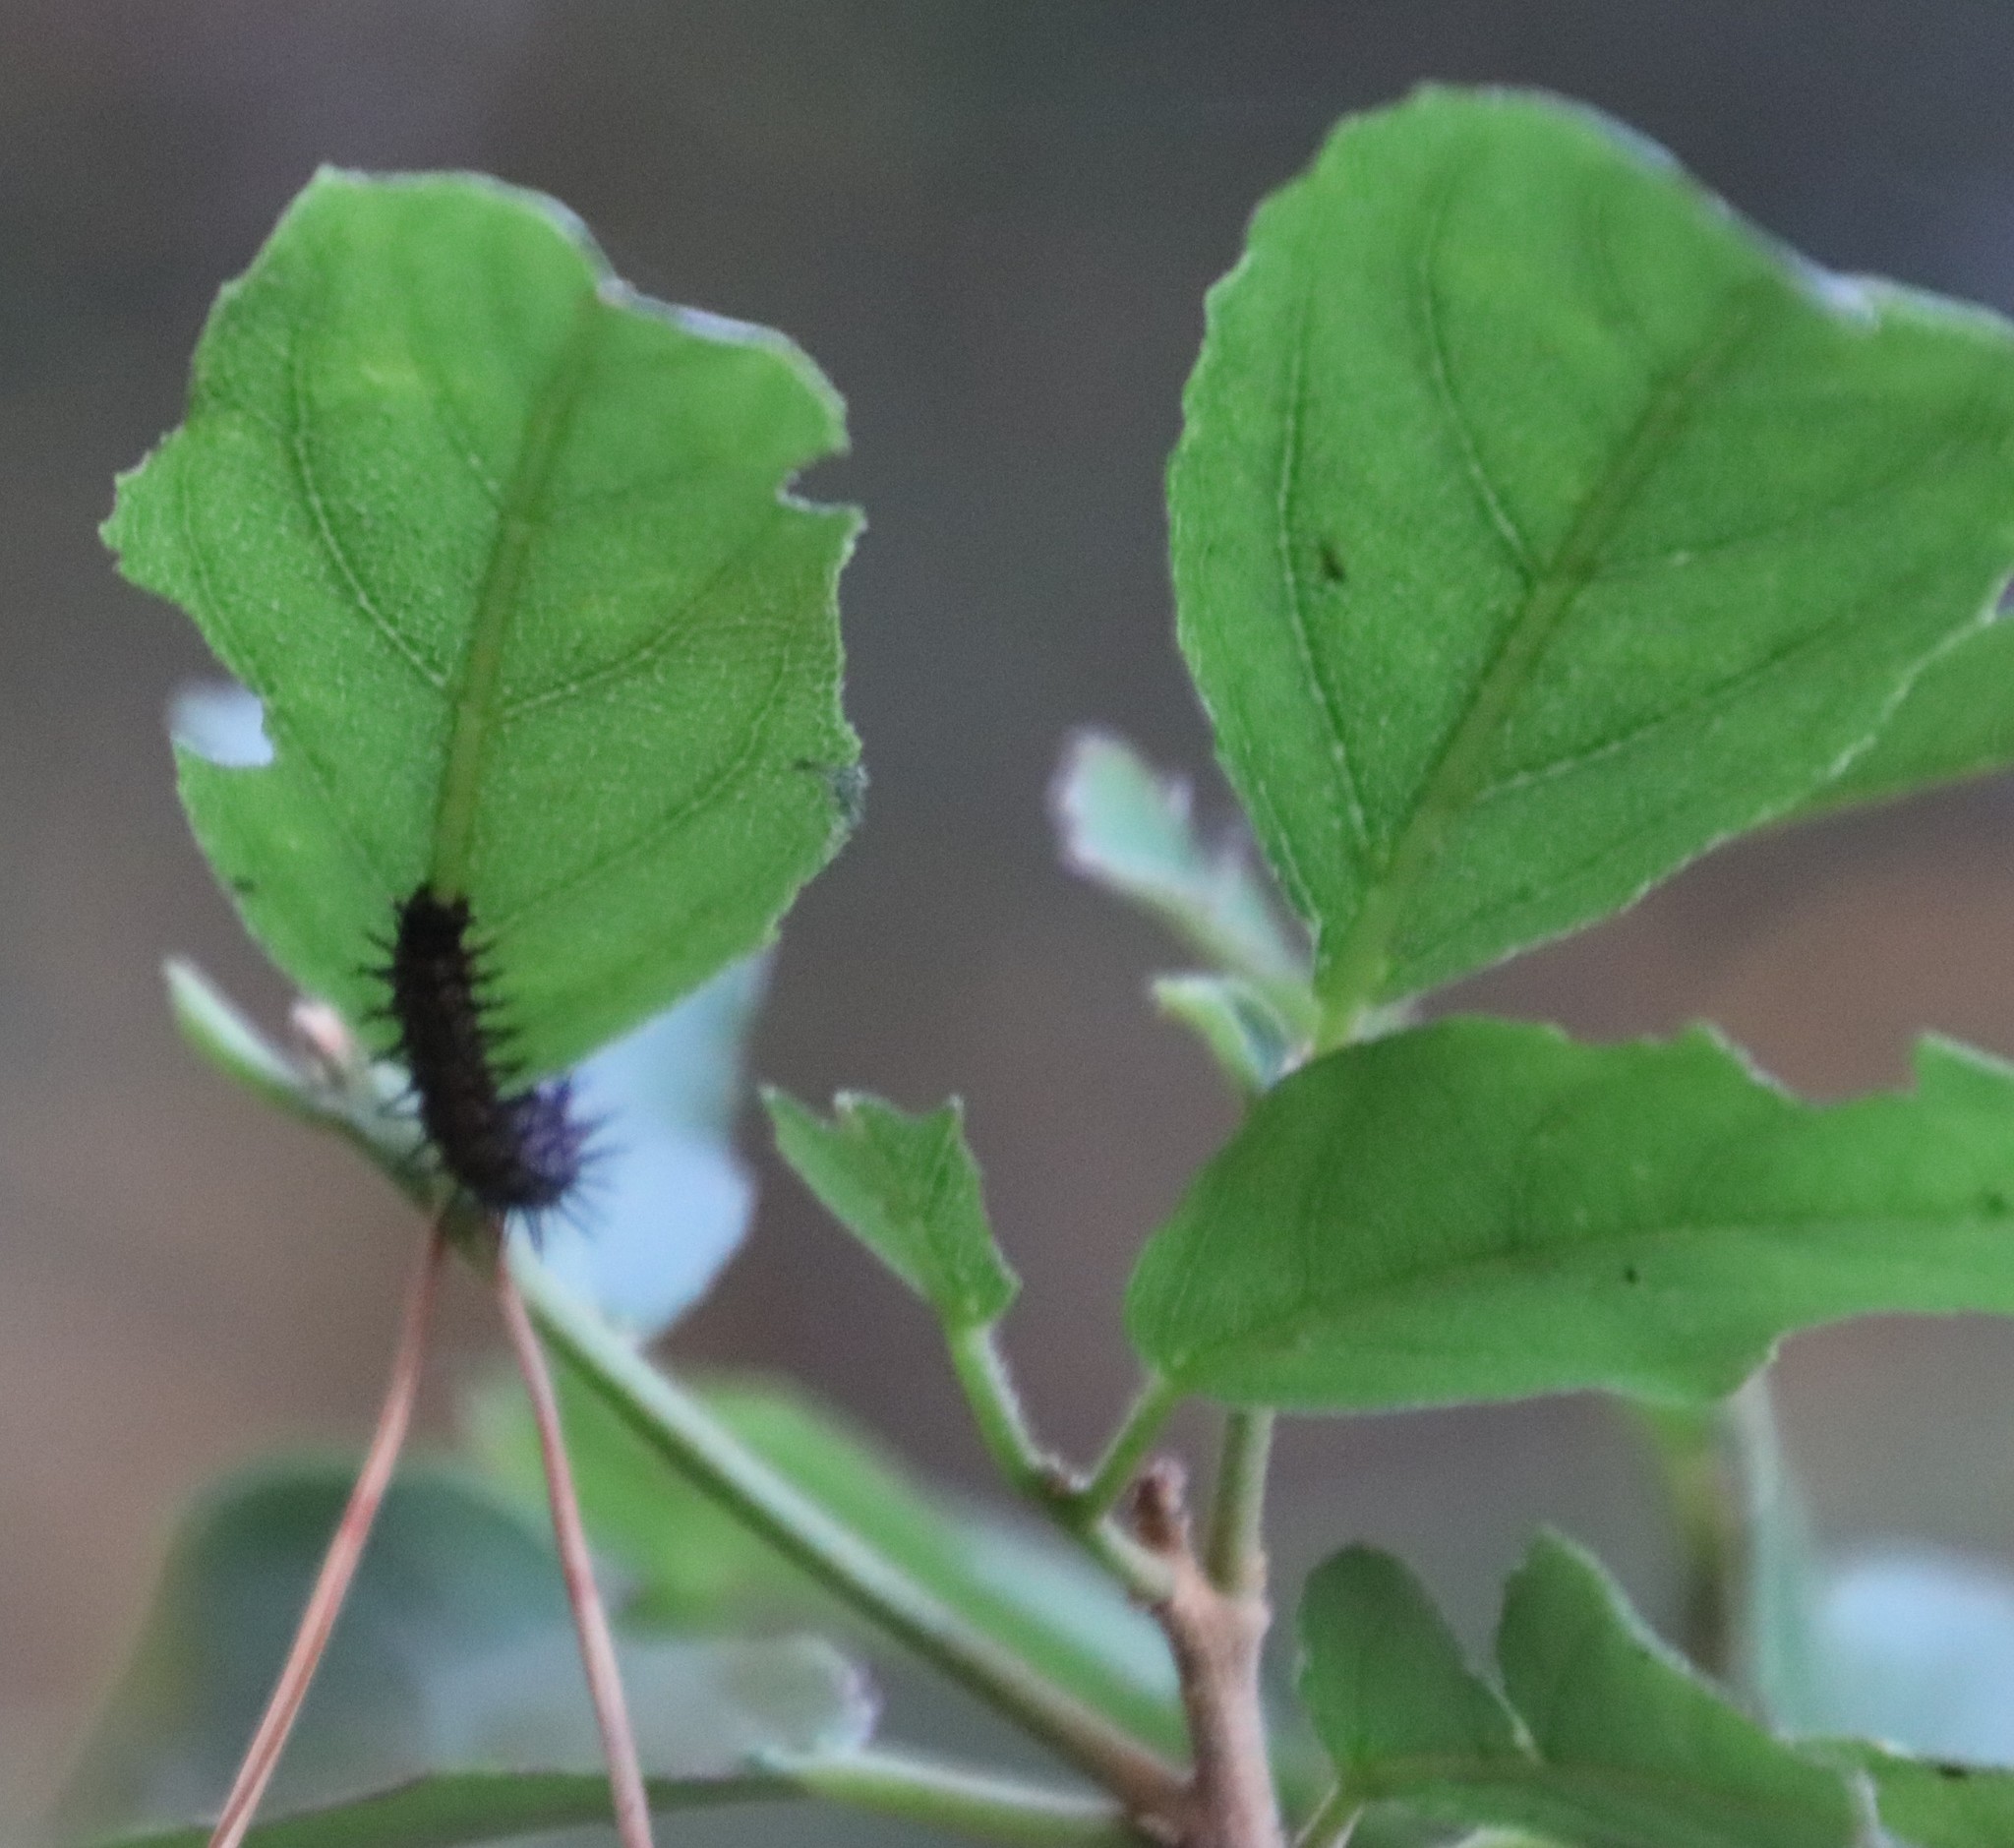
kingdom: Animalia
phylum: Arthropoda
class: Insecta
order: Lepidoptera
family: Nymphalidae
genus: Acraea
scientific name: Acraea horta
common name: Garden acraea
